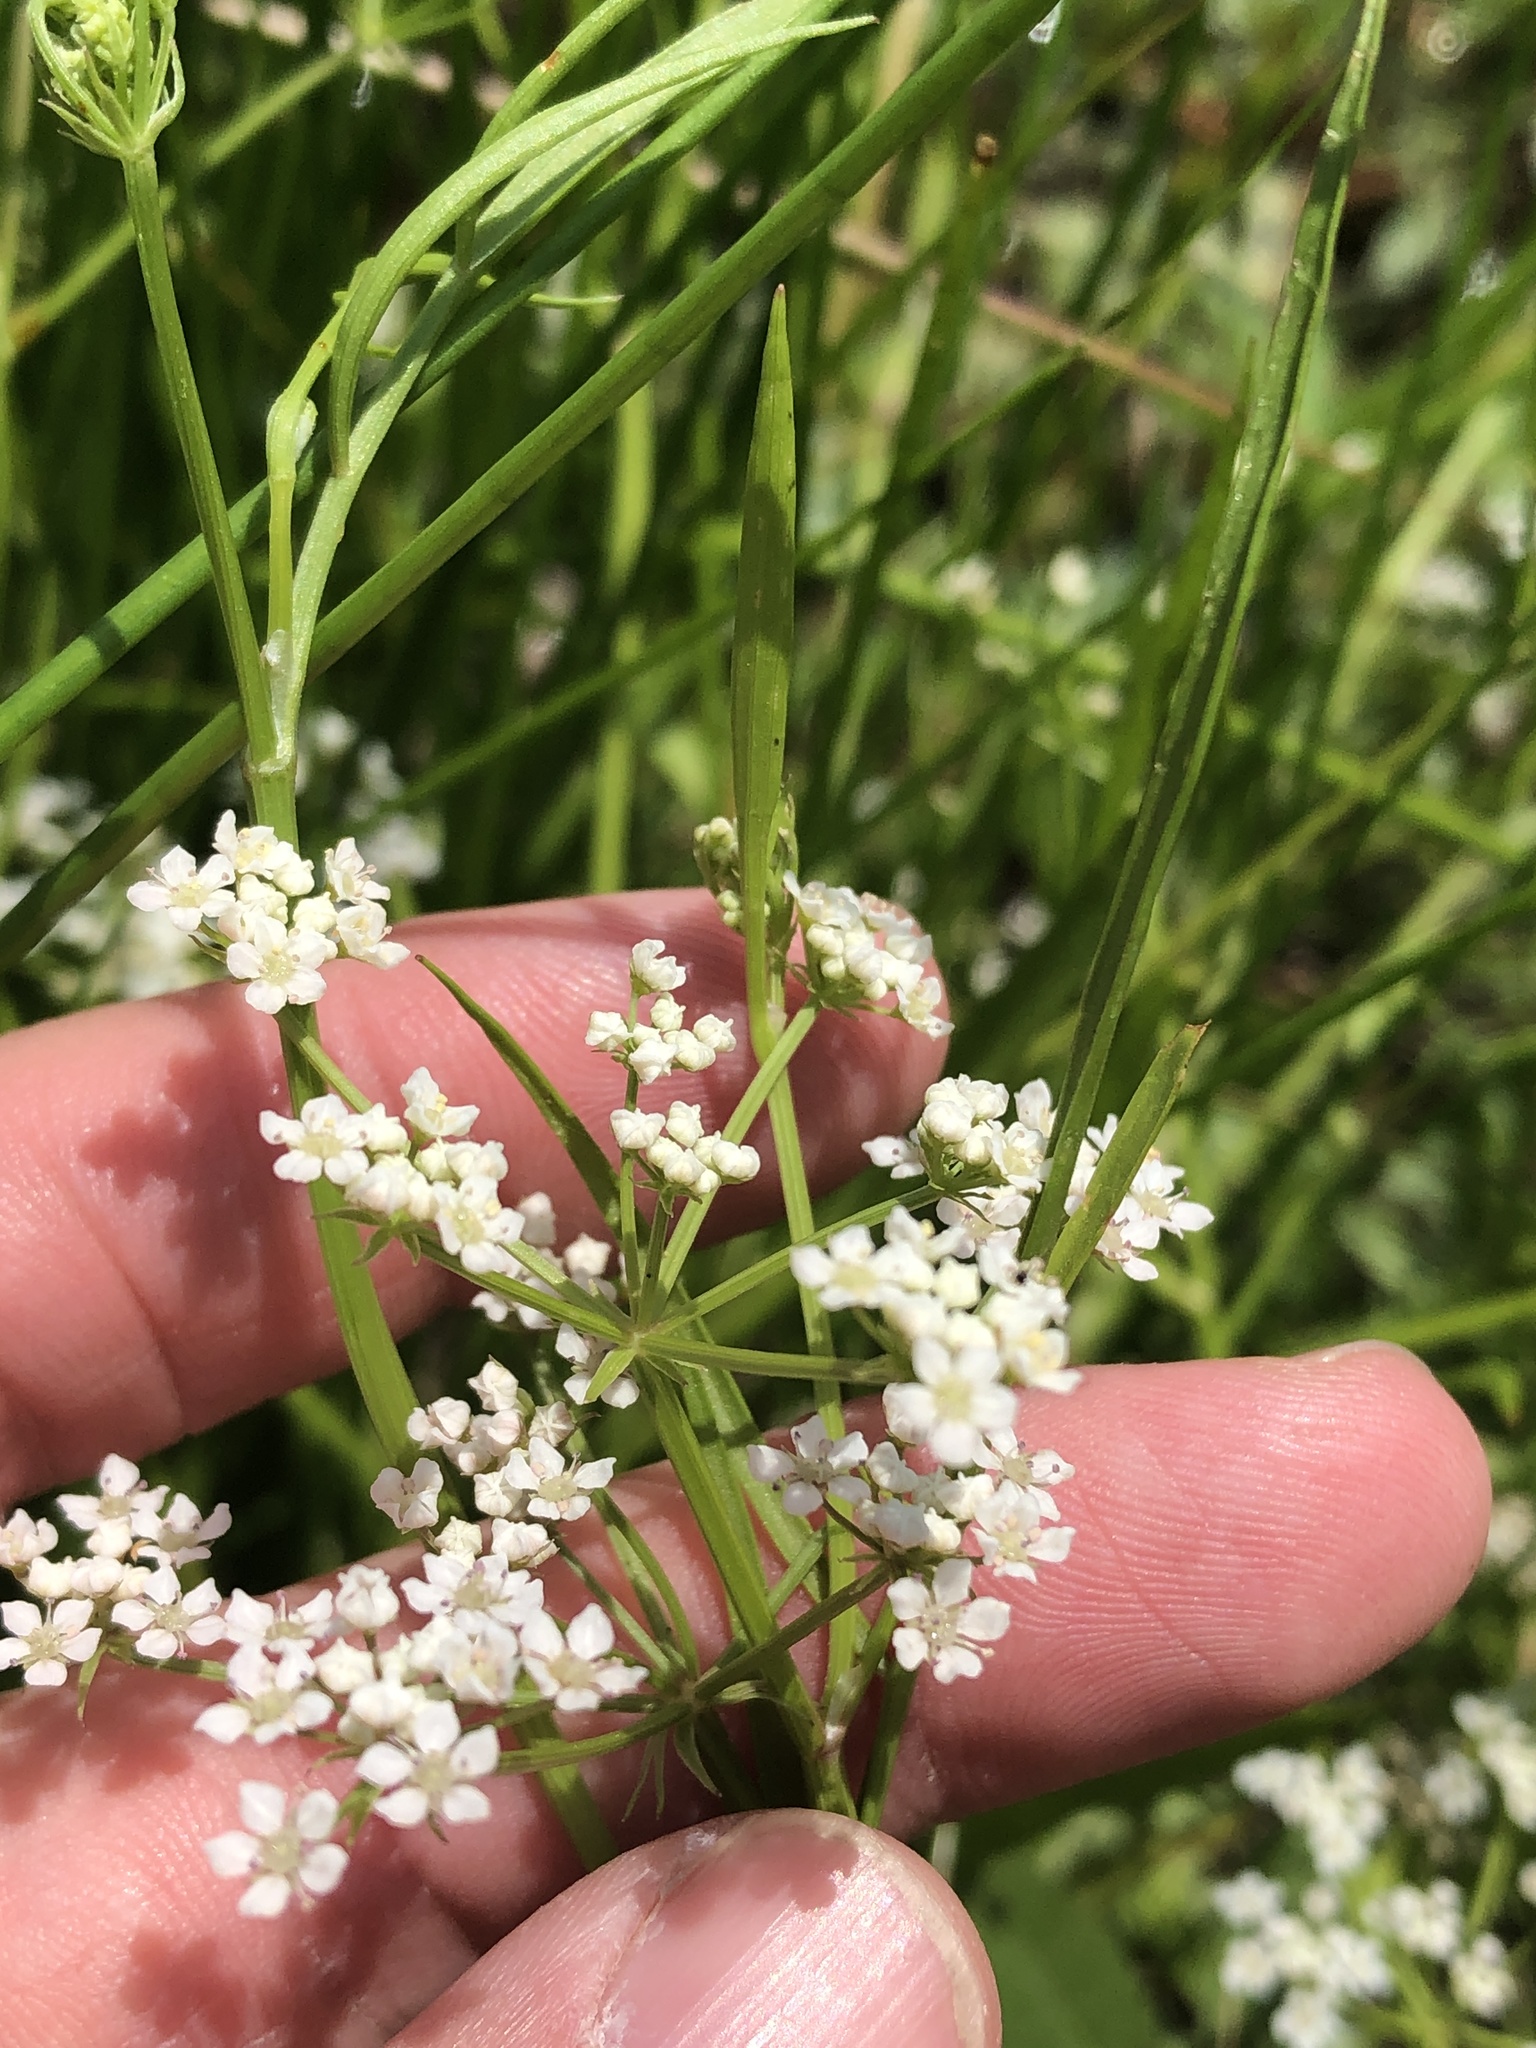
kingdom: Plantae
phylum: Tracheophyta
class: Magnoliopsida
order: Apiales
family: Apiaceae
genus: Limnosciadium
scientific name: Limnosciadium pinnatum
